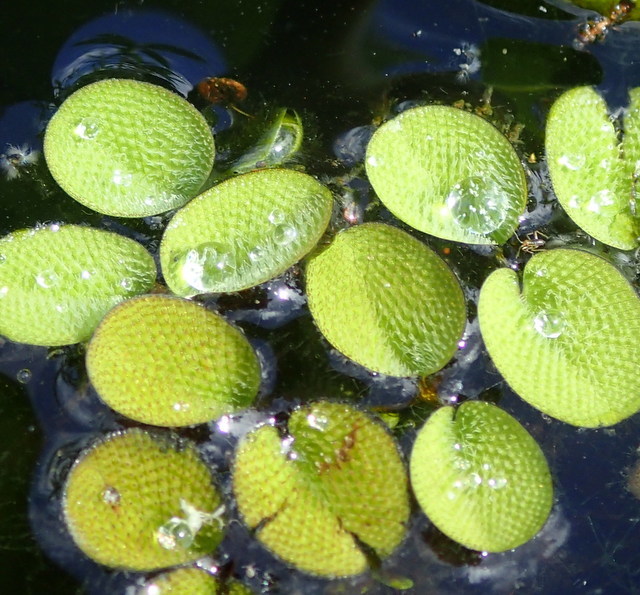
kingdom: Plantae
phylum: Tracheophyta
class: Polypodiopsida
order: Salviniales
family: Salviniaceae
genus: Salvinia
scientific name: Salvinia minima
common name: Water spangles
